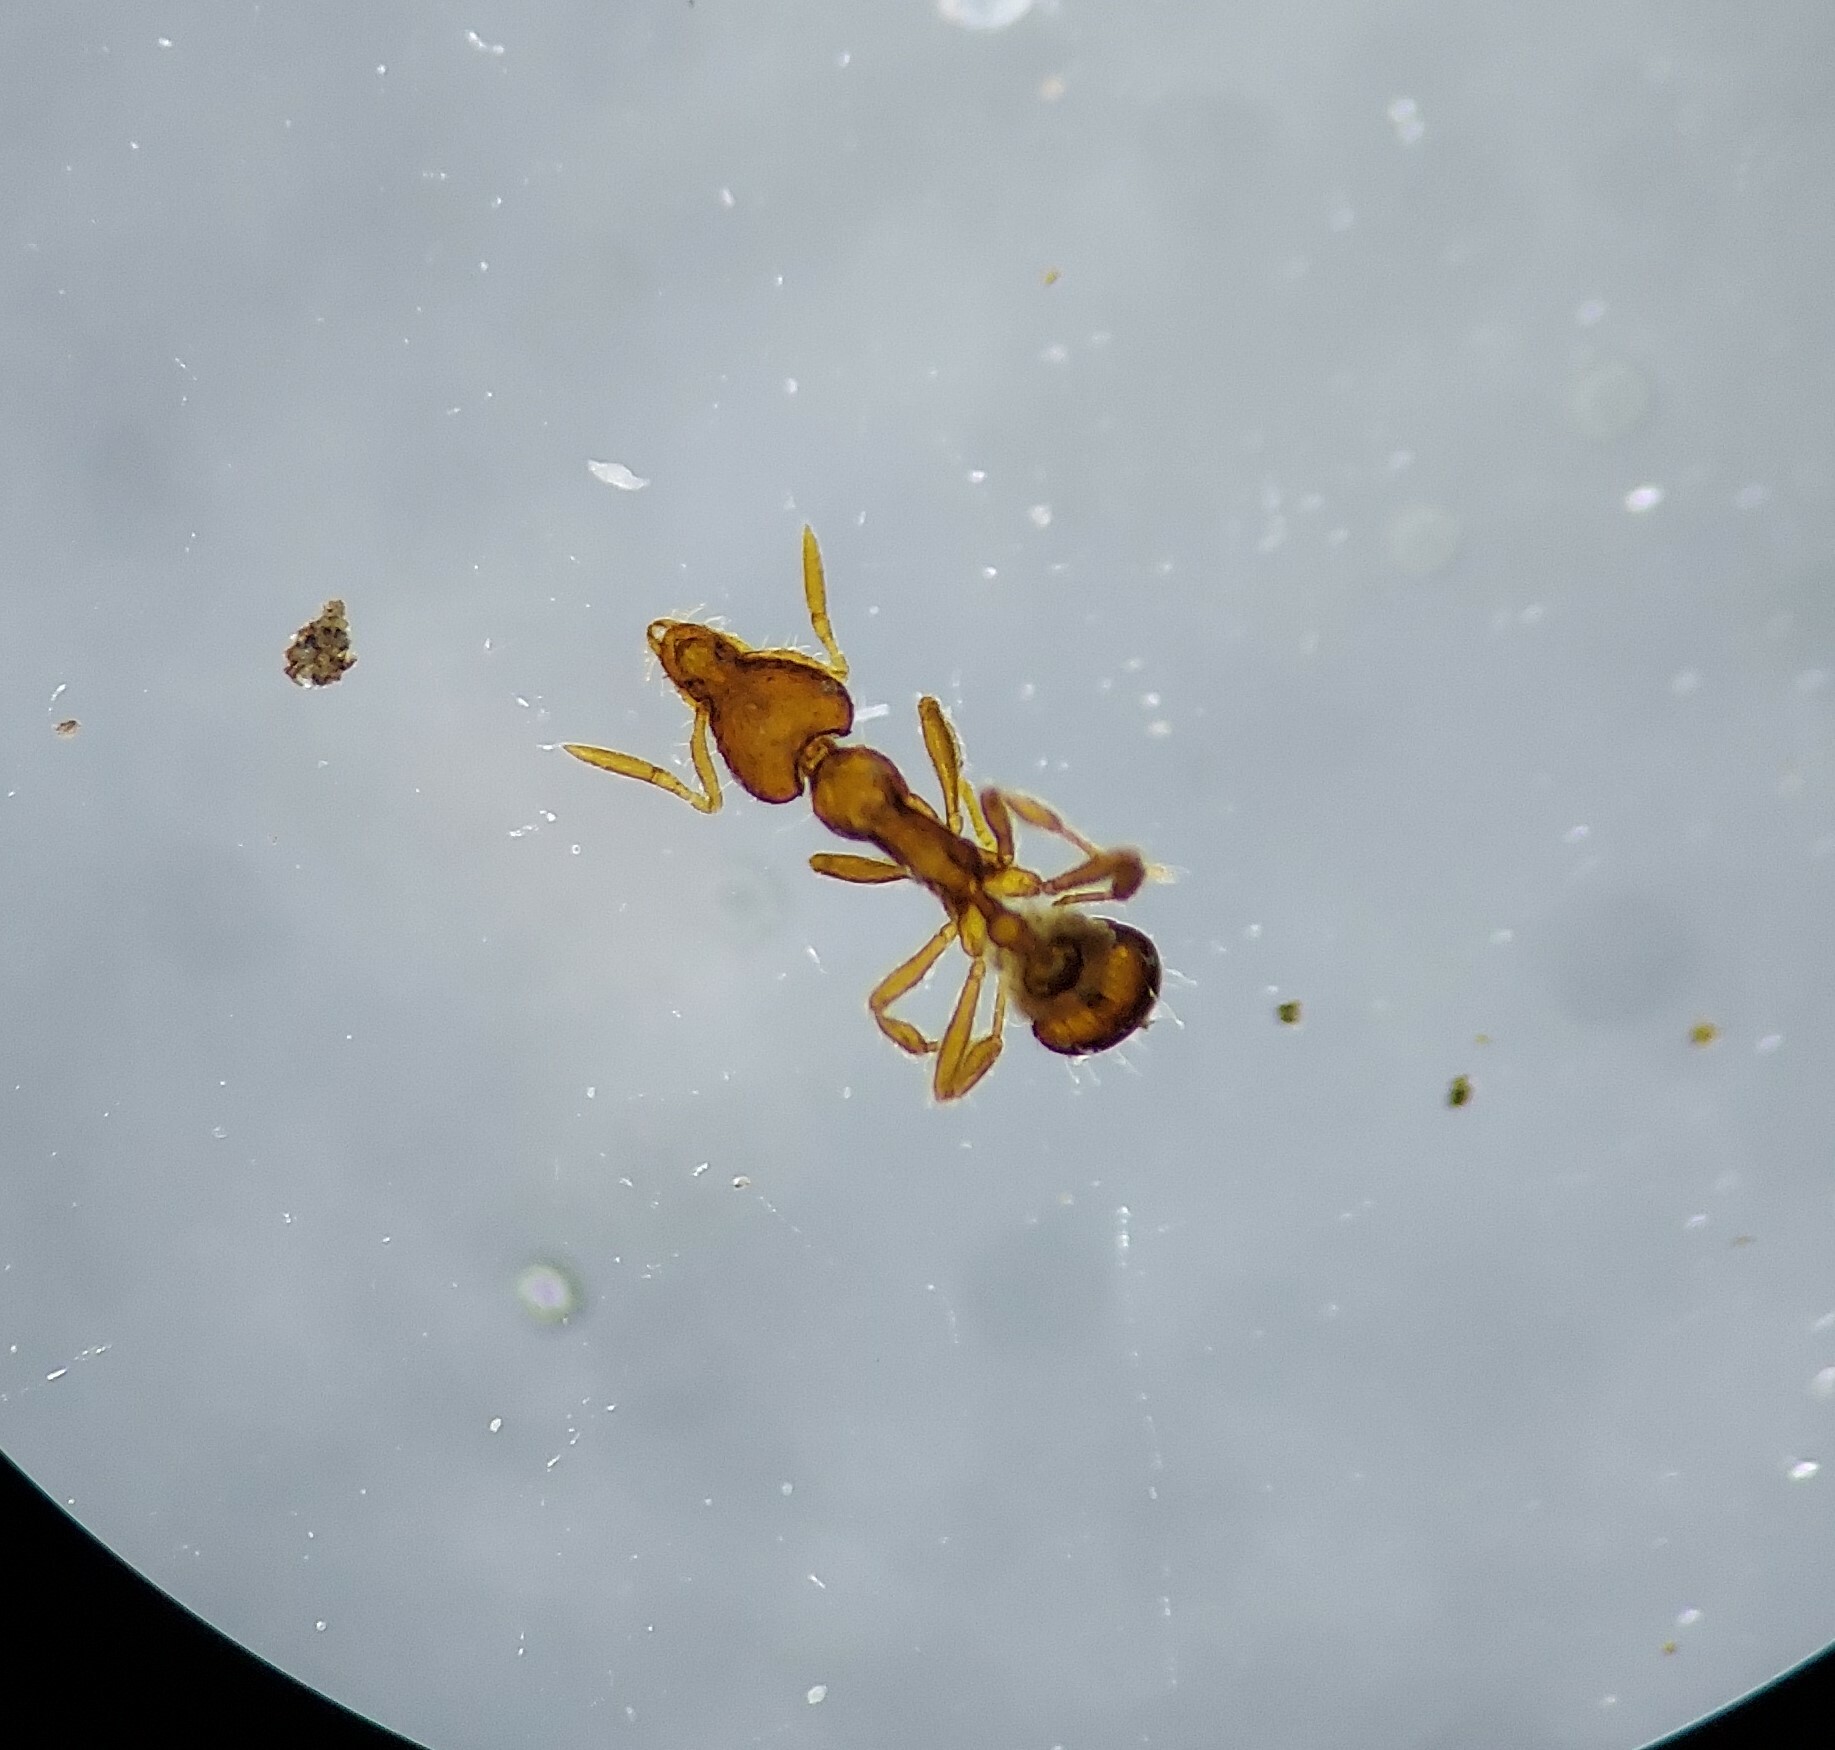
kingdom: Animalia
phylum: Arthropoda
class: Insecta
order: Hymenoptera
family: Formicidae
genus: Pyramica
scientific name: Pyramica ornata
